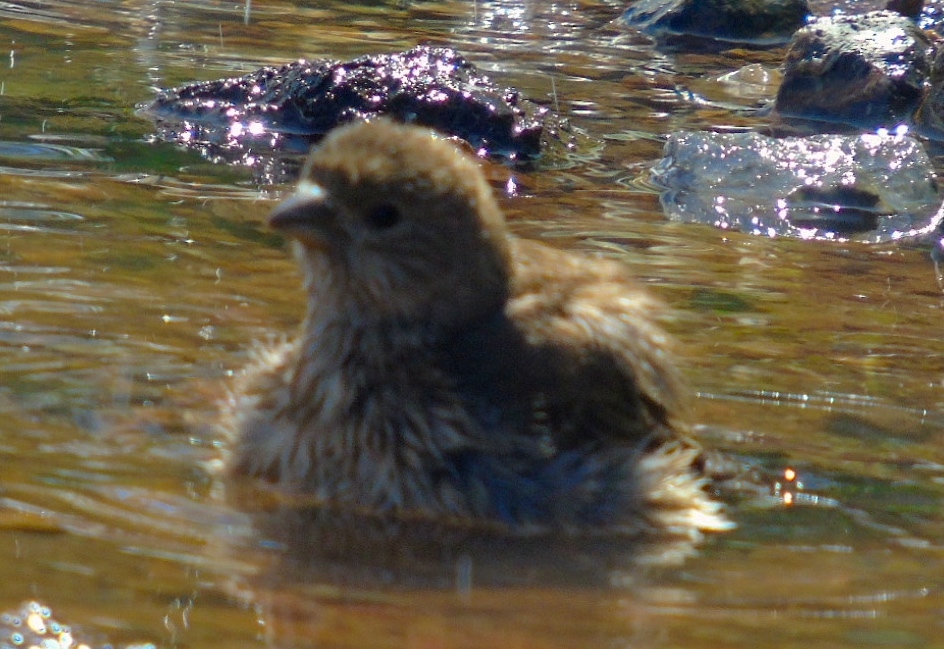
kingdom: Animalia
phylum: Chordata
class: Aves
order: Passeriformes
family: Thraupidae
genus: Volatinia
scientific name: Volatinia jacarina
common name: Blue-black grassquit
